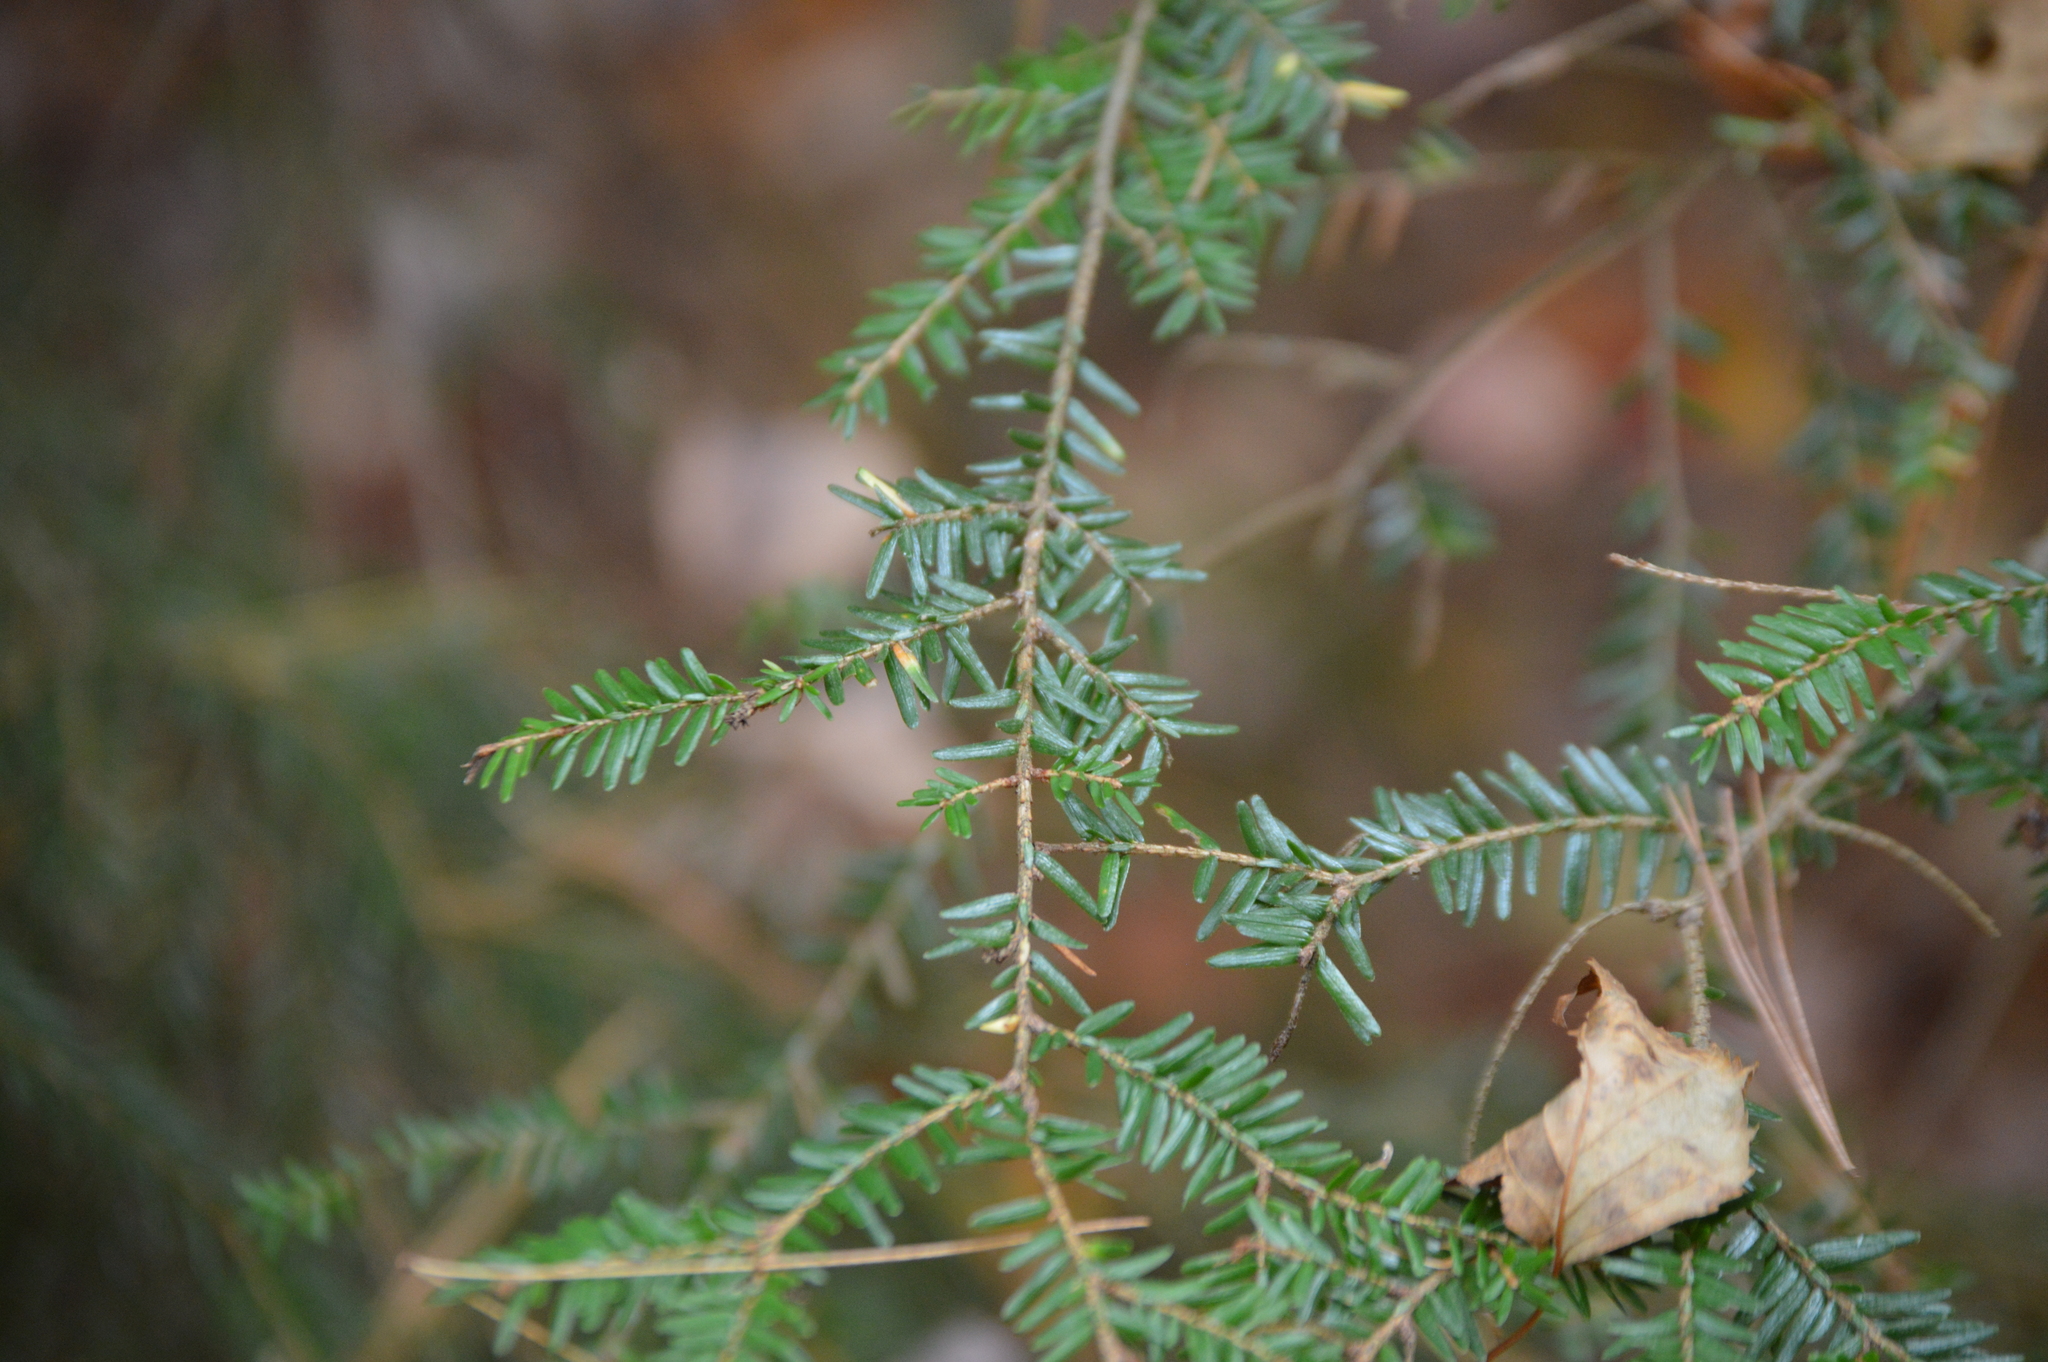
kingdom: Plantae
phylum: Tracheophyta
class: Pinopsida
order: Pinales
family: Pinaceae
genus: Tsuga
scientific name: Tsuga canadensis
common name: Eastern hemlock
